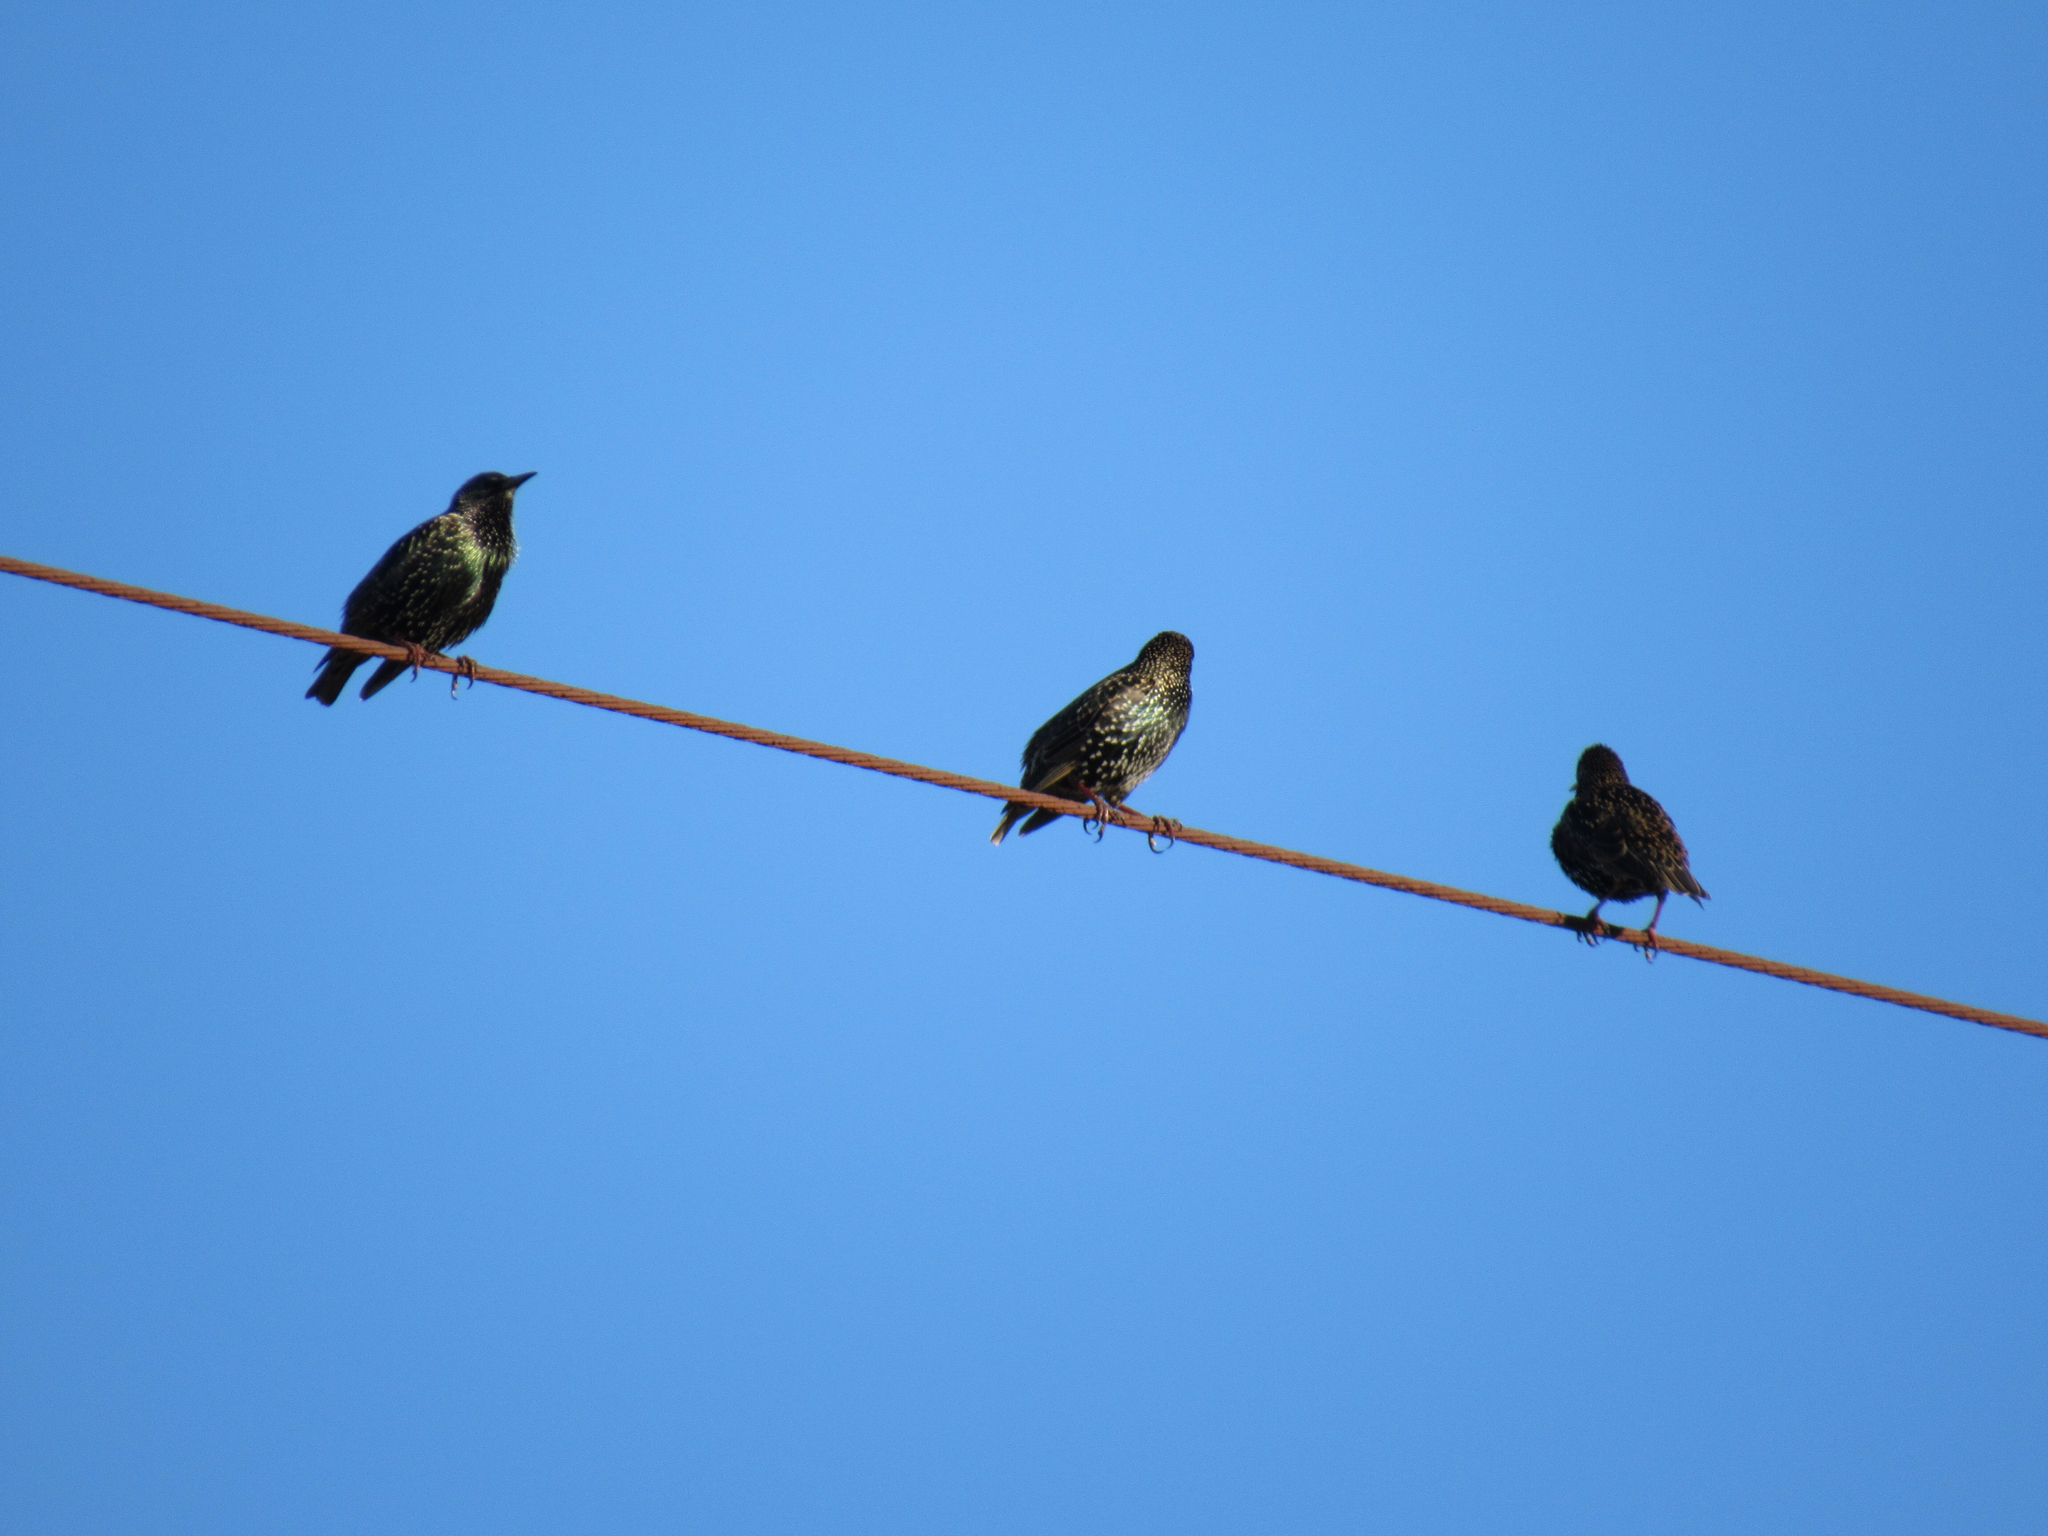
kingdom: Animalia
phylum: Chordata
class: Aves
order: Passeriformes
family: Sturnidae
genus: Sturnus
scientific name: Sturnus vulgaris
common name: Common starling
